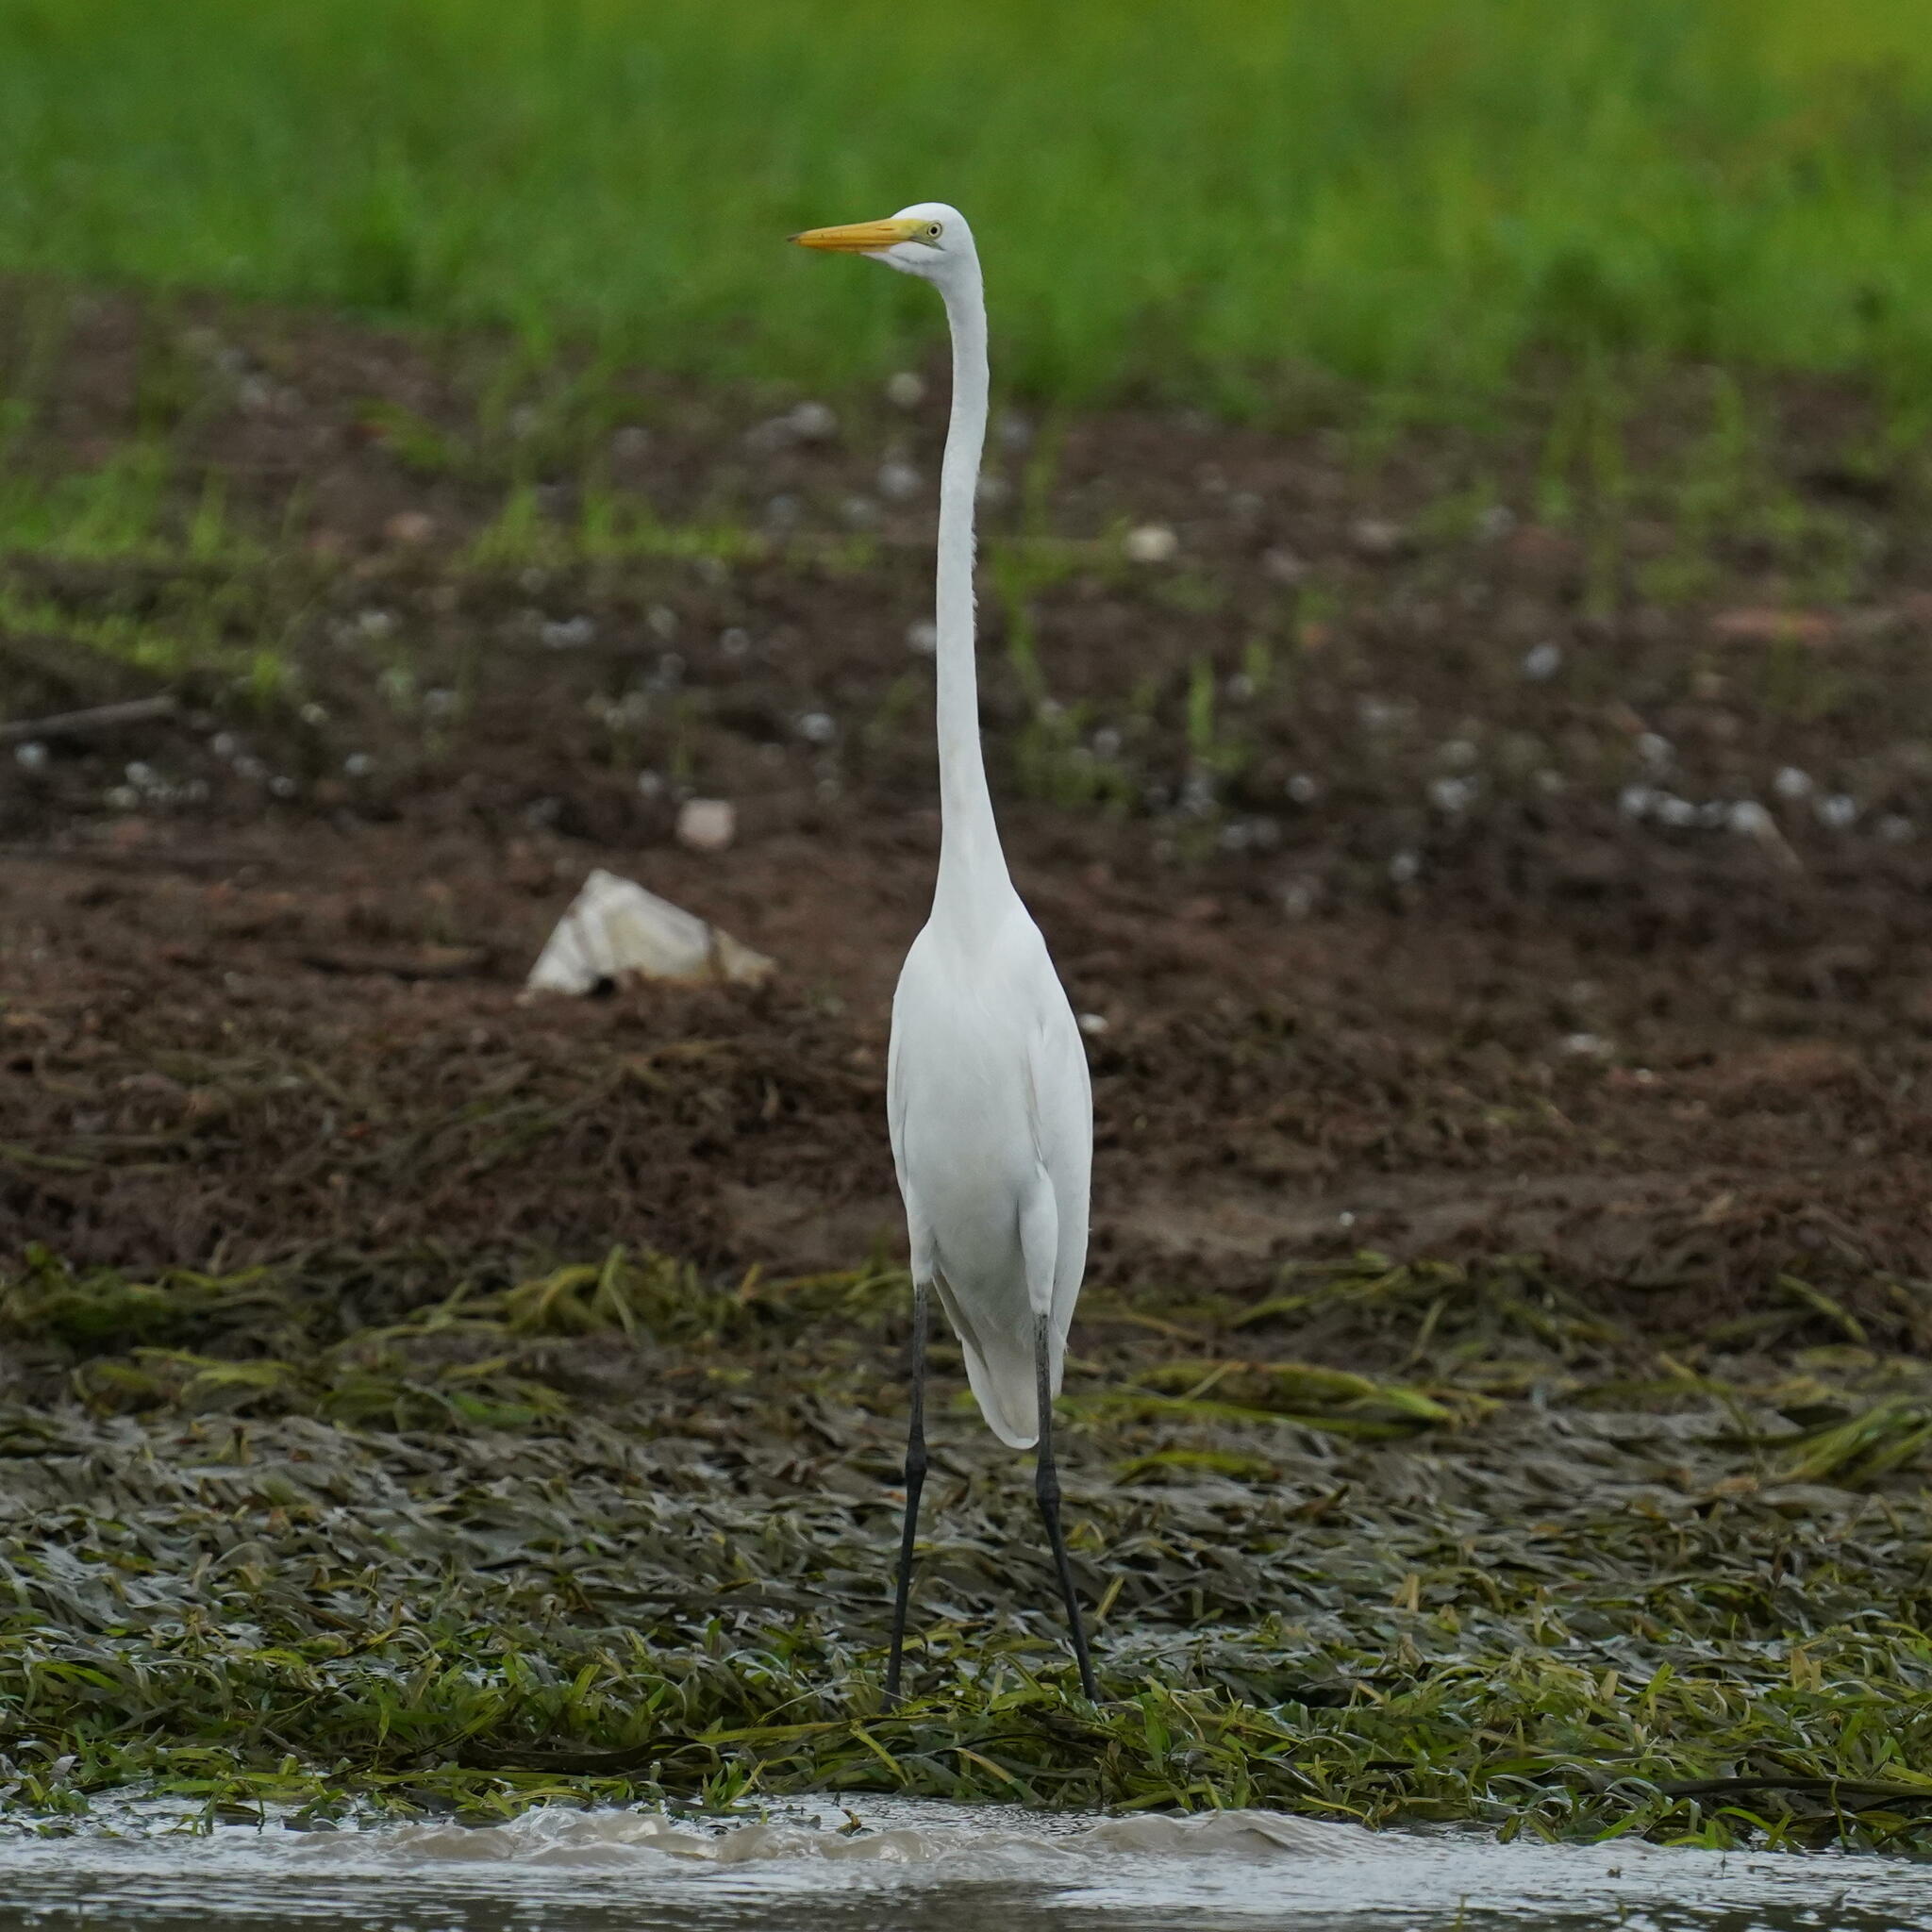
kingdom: Animalia
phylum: Chordata
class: Aves
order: Pelecaniformes
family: Ardeidae
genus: Ardea
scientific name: Ardea alba
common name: Great egret
